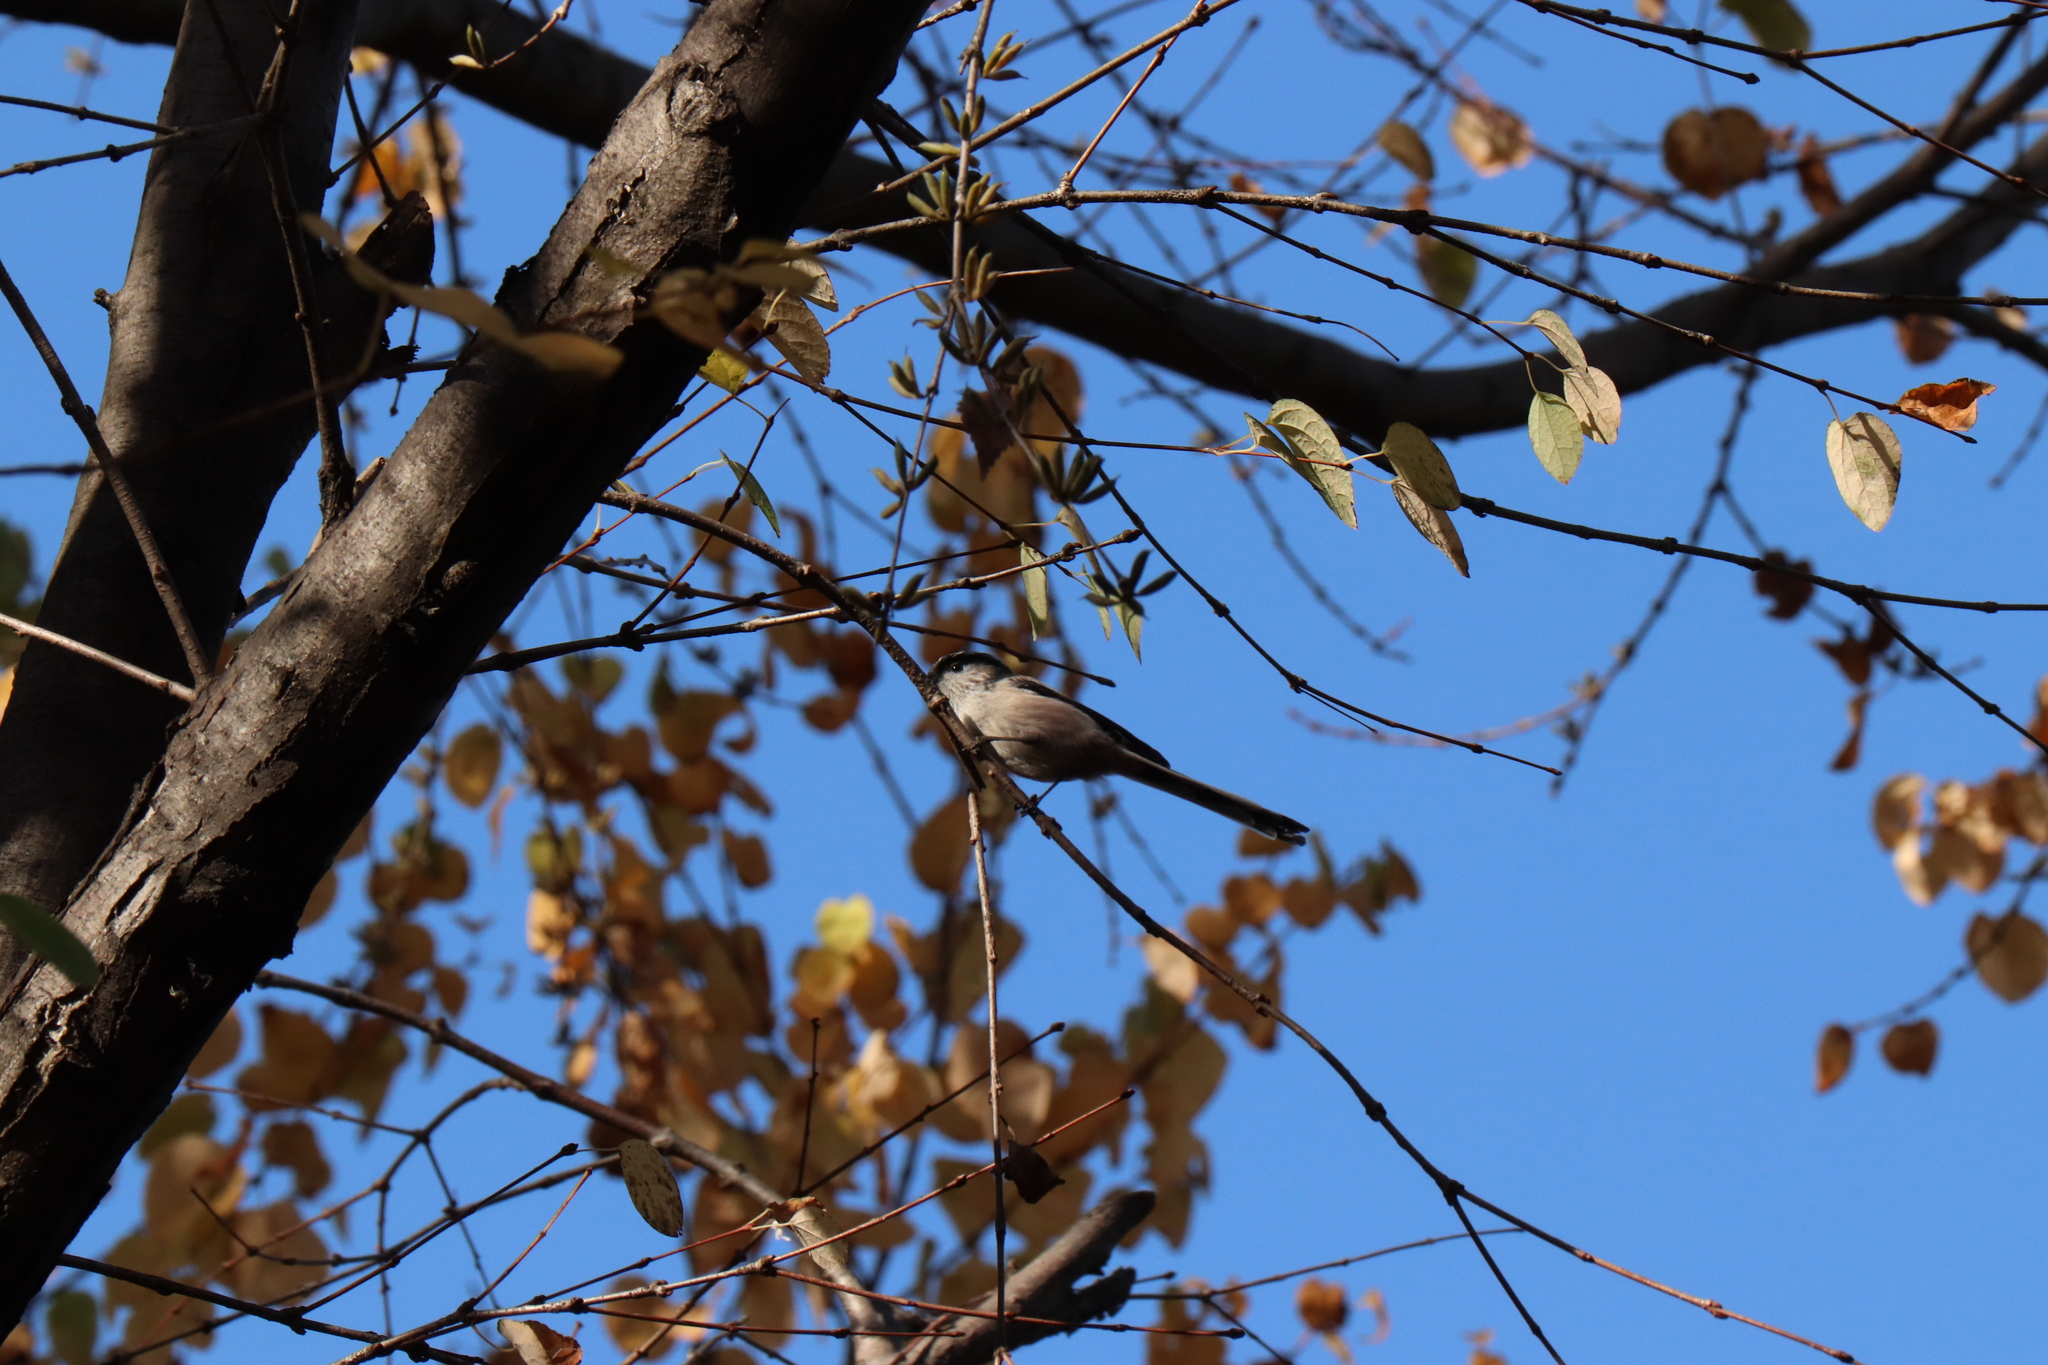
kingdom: Animalia
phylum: Chordata
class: Aves
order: Passeriformes
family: Aegithalidae
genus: Aegithalos
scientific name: Aegithalos caudatus
